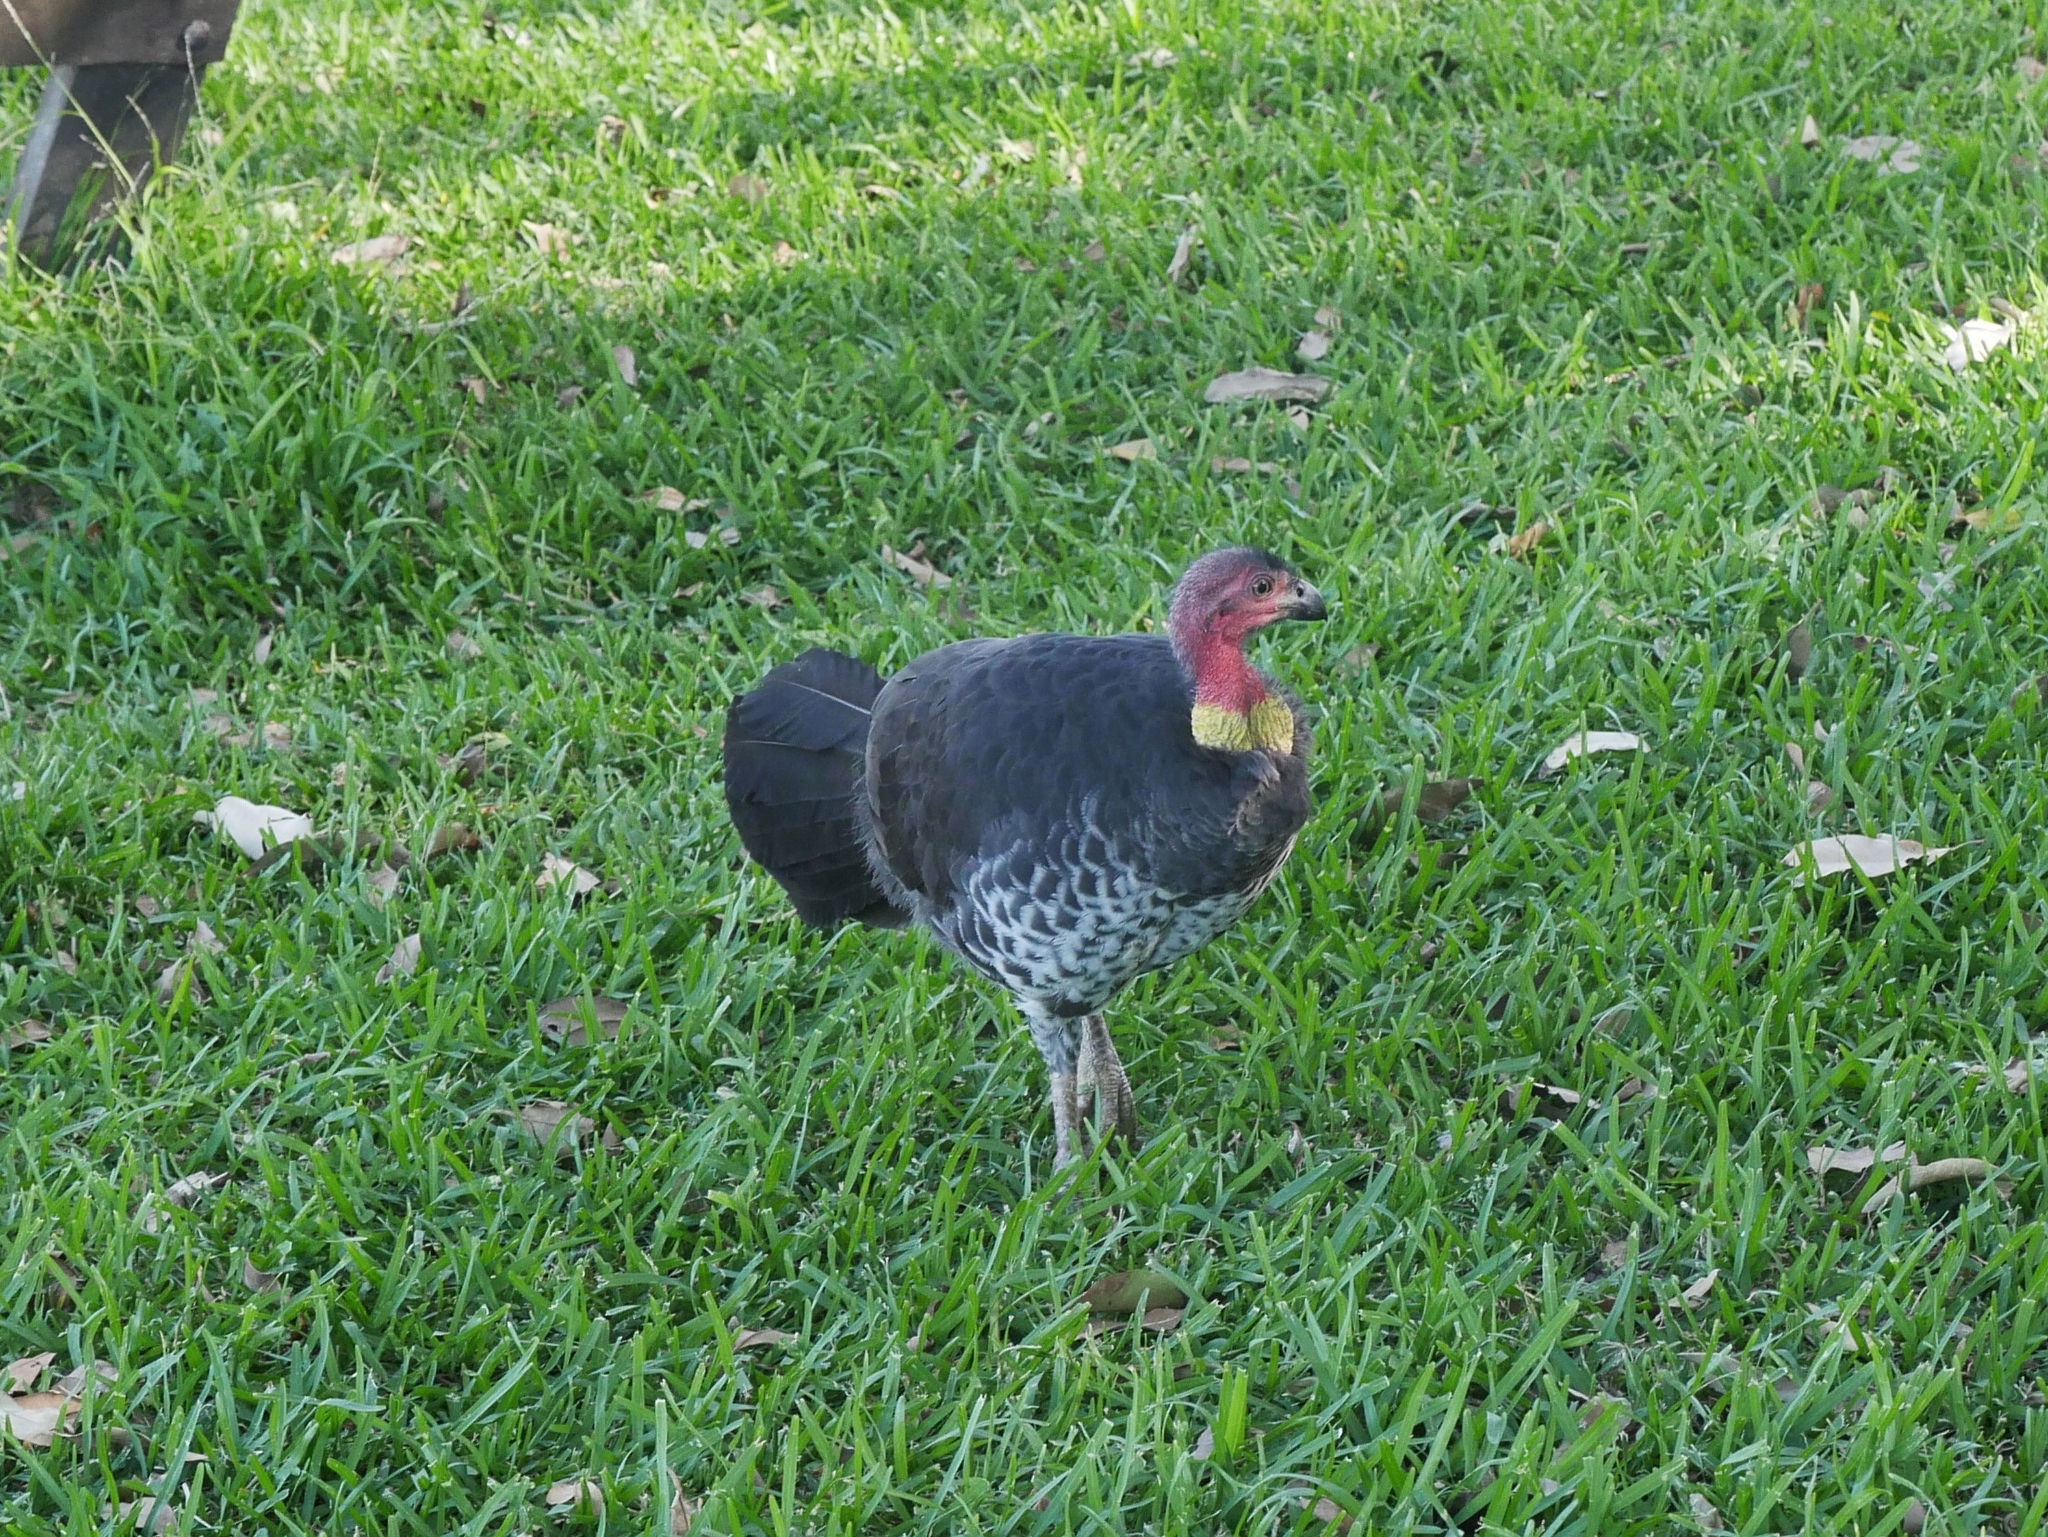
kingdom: Animalia
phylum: Chordata
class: Aves
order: Galliformes
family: Megapodiidae
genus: Alectura
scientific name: Alectura lathami
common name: Australian brushturkey
